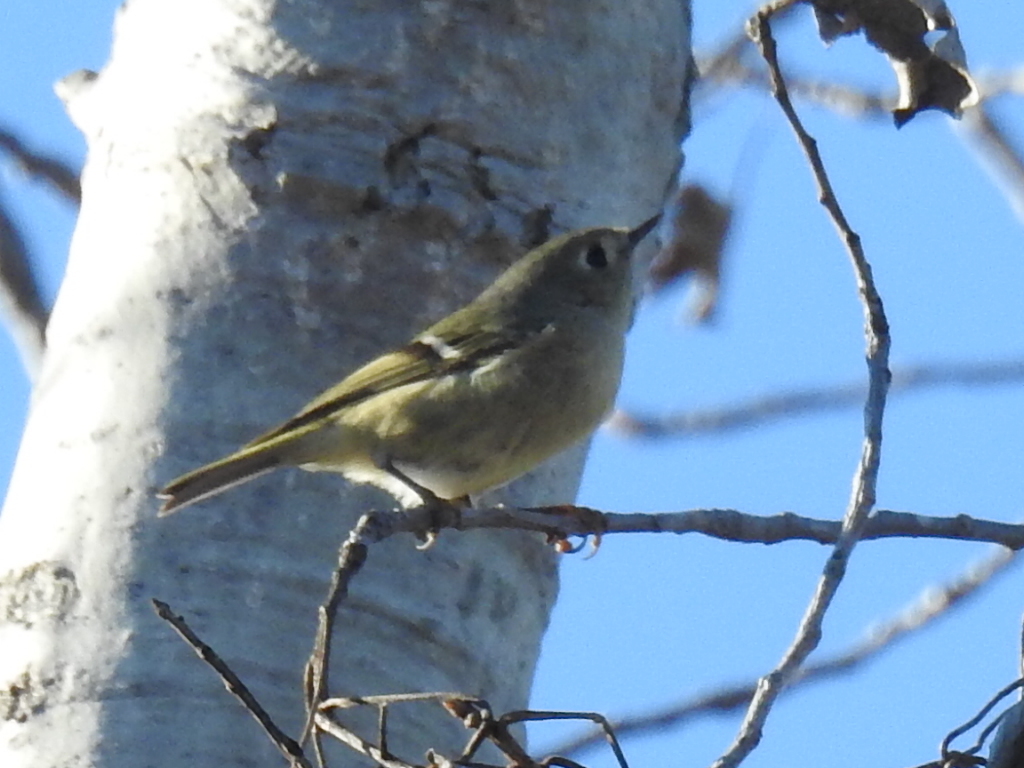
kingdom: Animalia
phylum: Chordata
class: Aves
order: Passeriformes
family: Regulidae
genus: Regulus
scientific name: Regulus calendula
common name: Ruby-crowned kinglet
